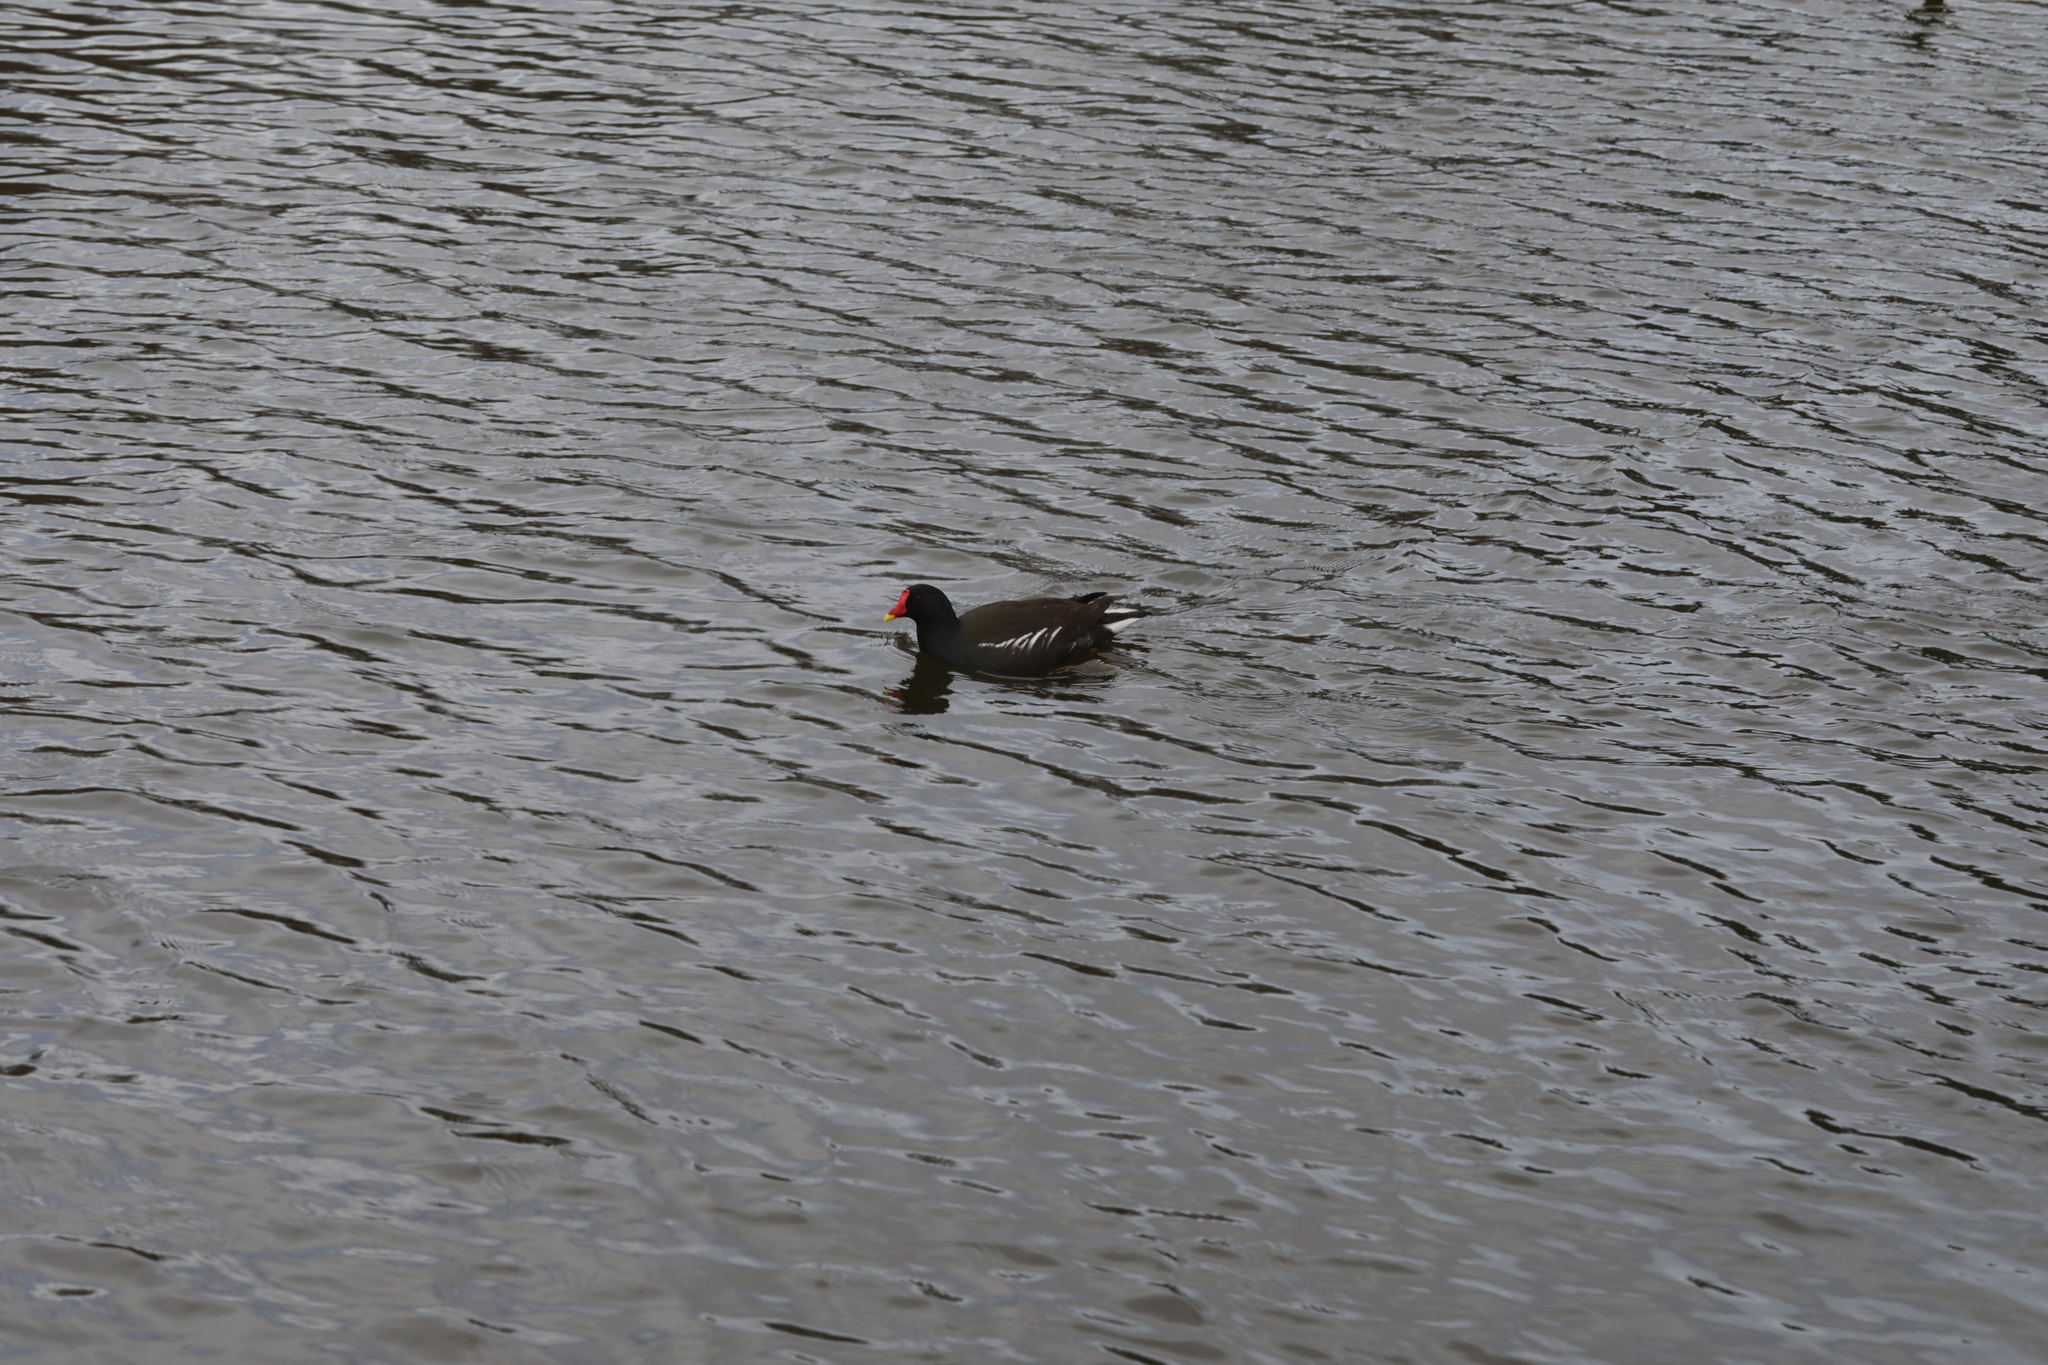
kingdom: Animalia
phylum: Chordata
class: Aves
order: Gruiformes
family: Rallidae
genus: Gallinula
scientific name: Gallinula chloropus
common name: Common moorhen
